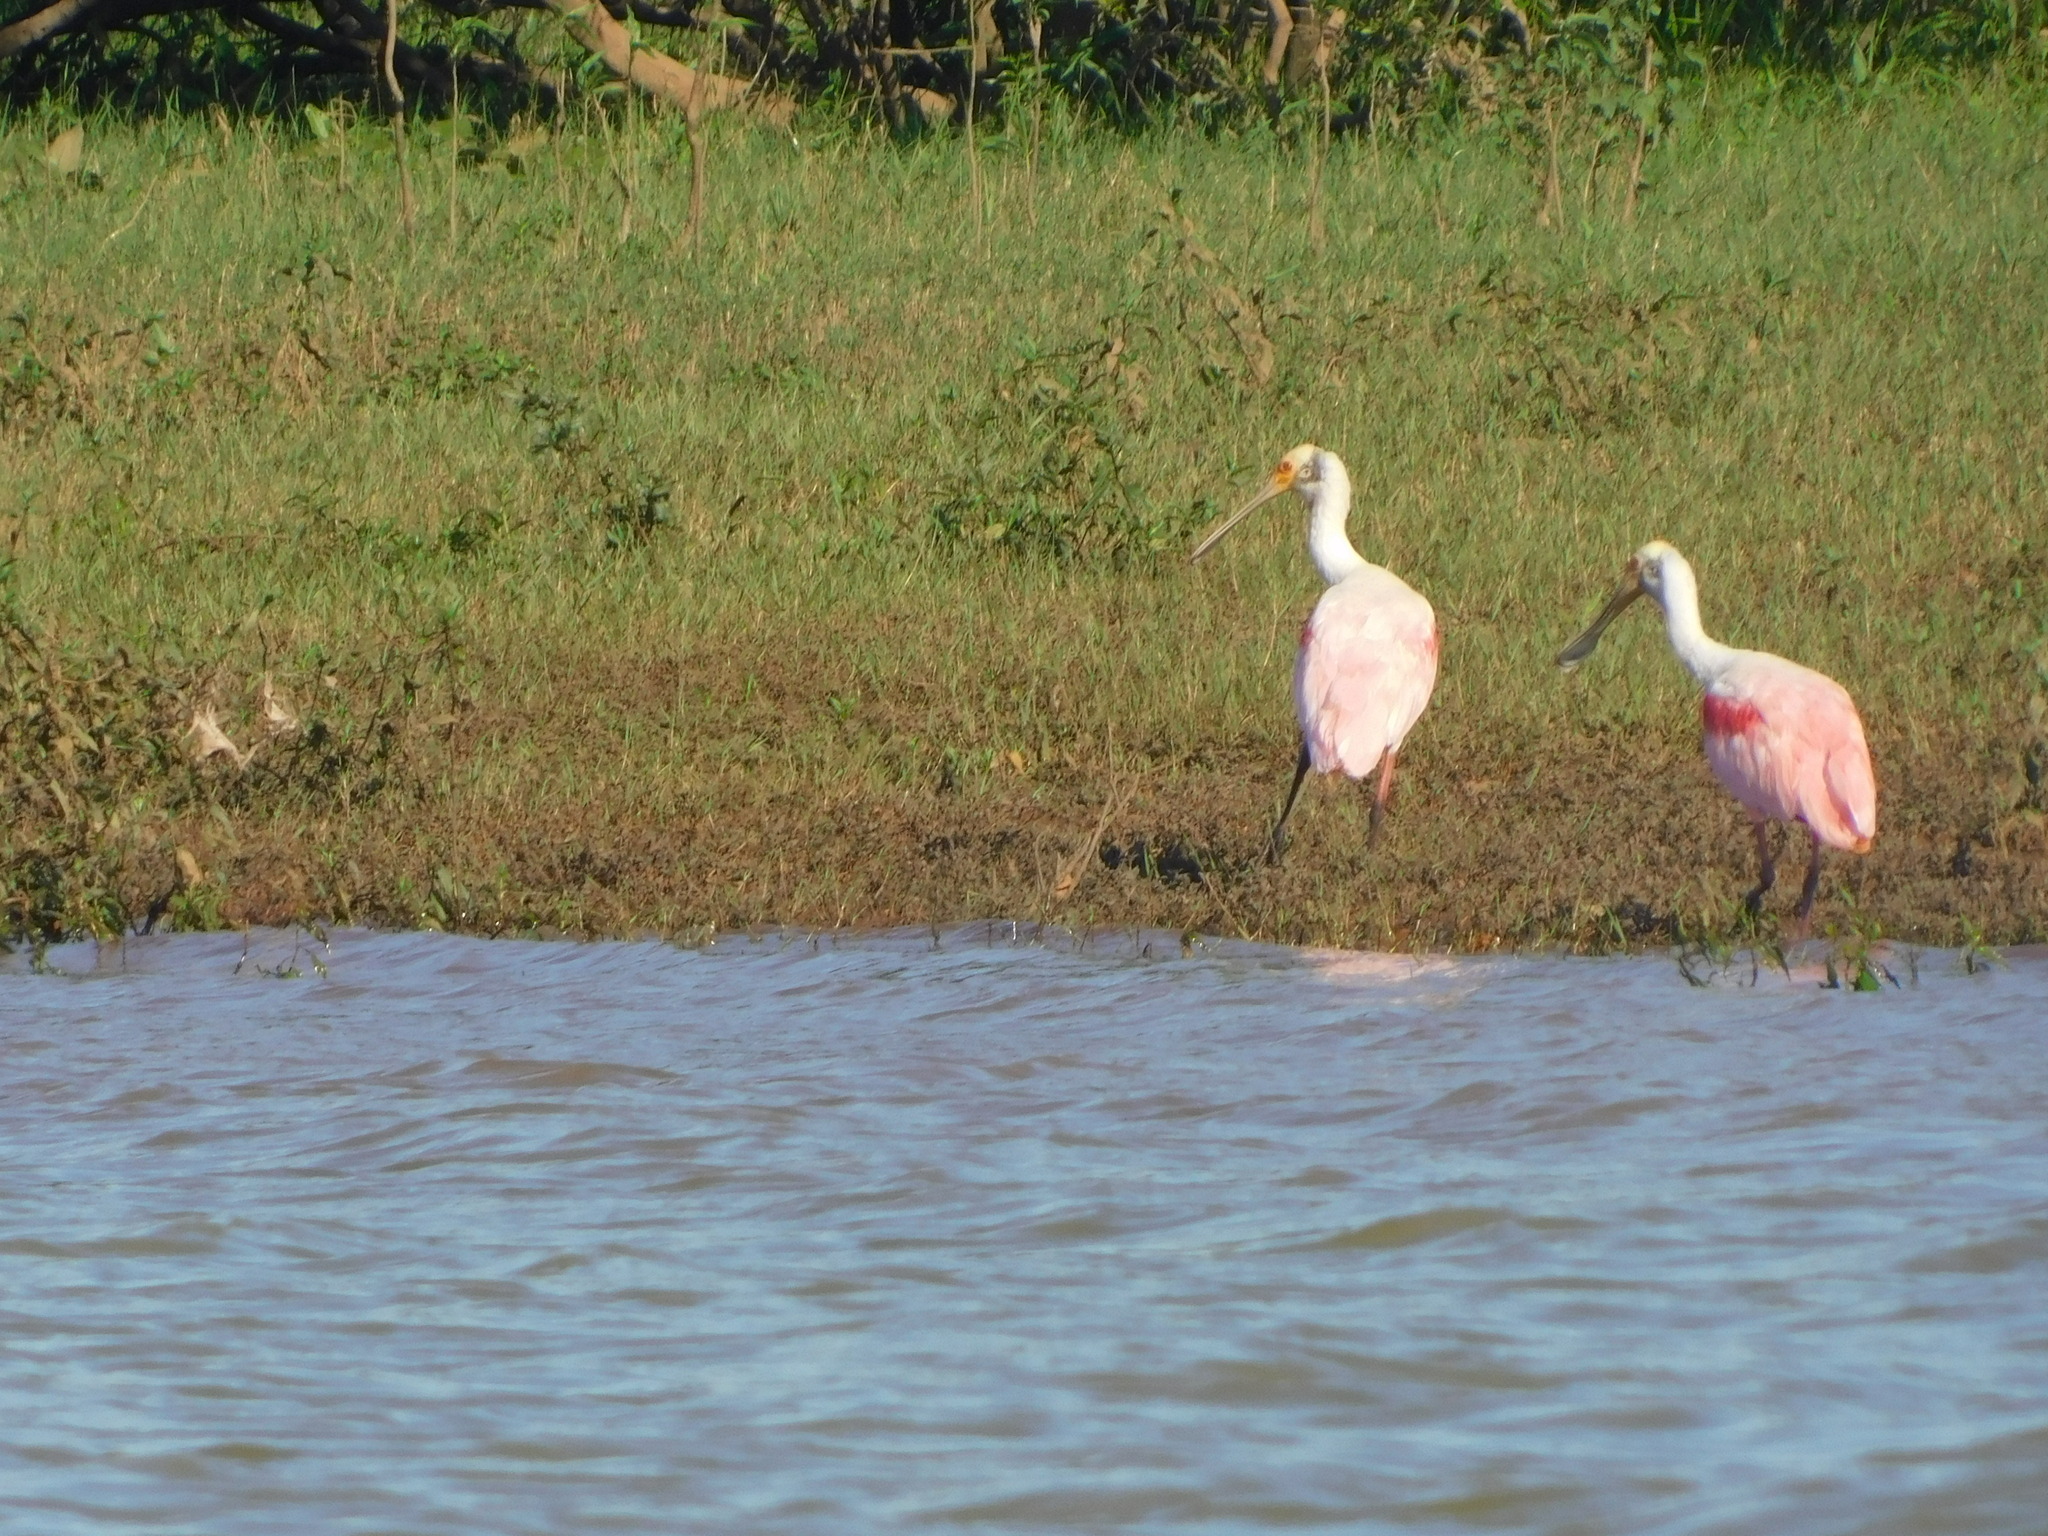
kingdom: Animalia
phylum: Chordata
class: Aves
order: Pelecaniformes
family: Threskiornithidae
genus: Platalea
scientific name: Platalea ajaja
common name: Roseate spoonbill
